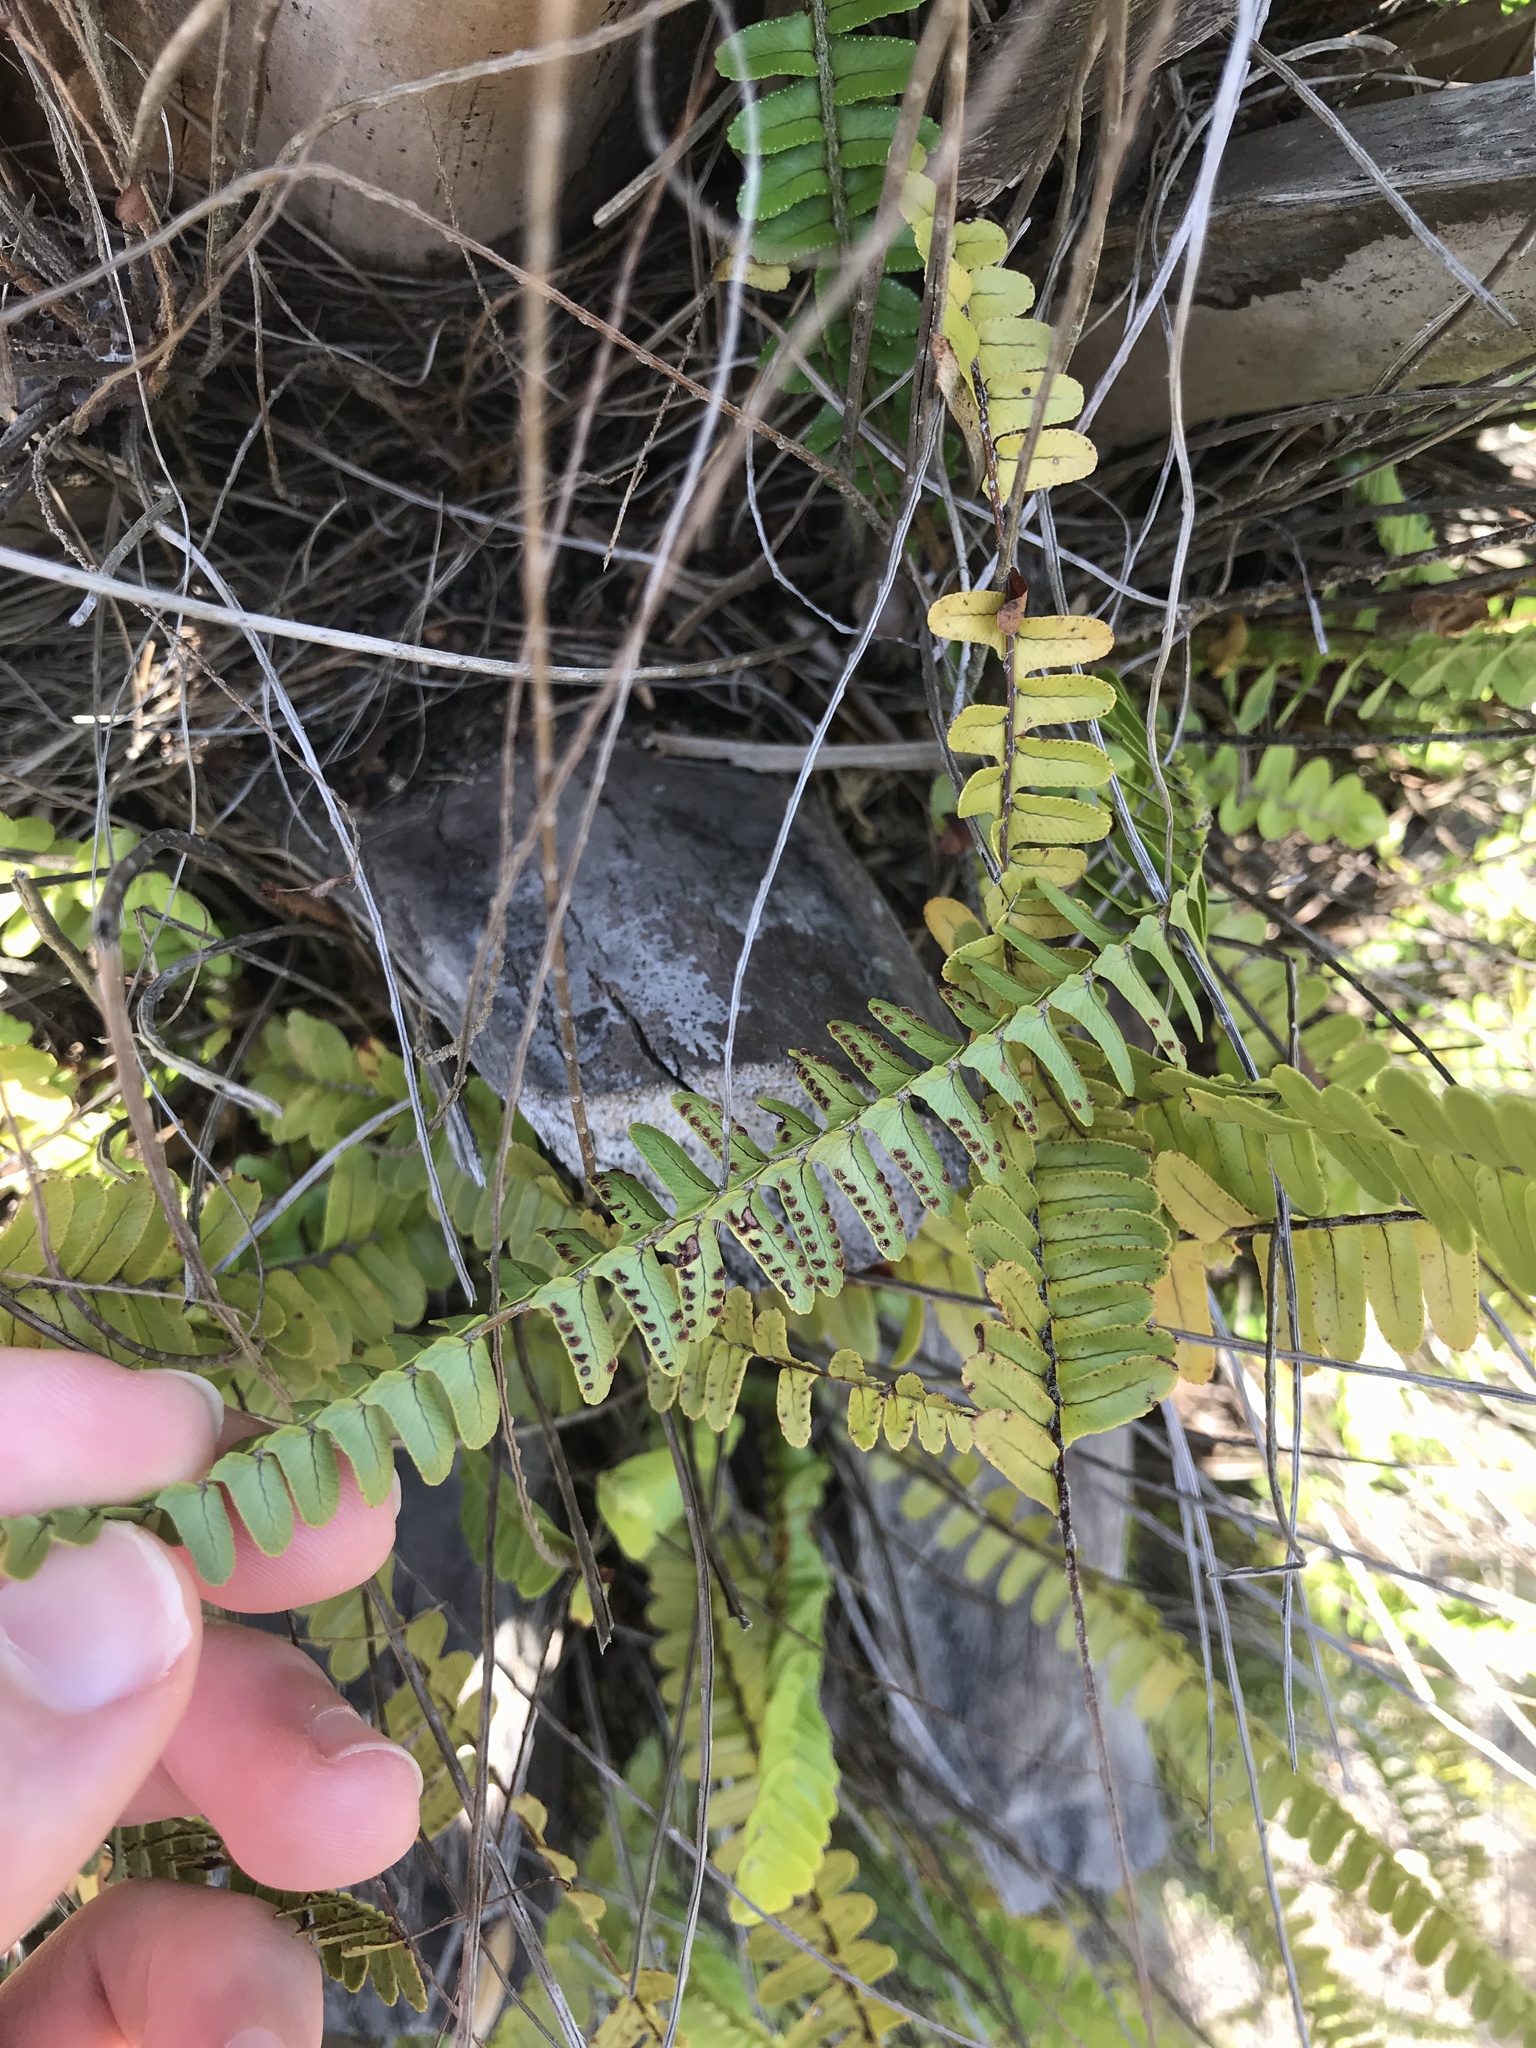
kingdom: Plantae
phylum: Tracheophyta
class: Polypodiopsida
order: Polypodiales
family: Nephrolepidaceae
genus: Nephrolepis
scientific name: Nephrolepis cordifolia
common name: Narrow swordfern
